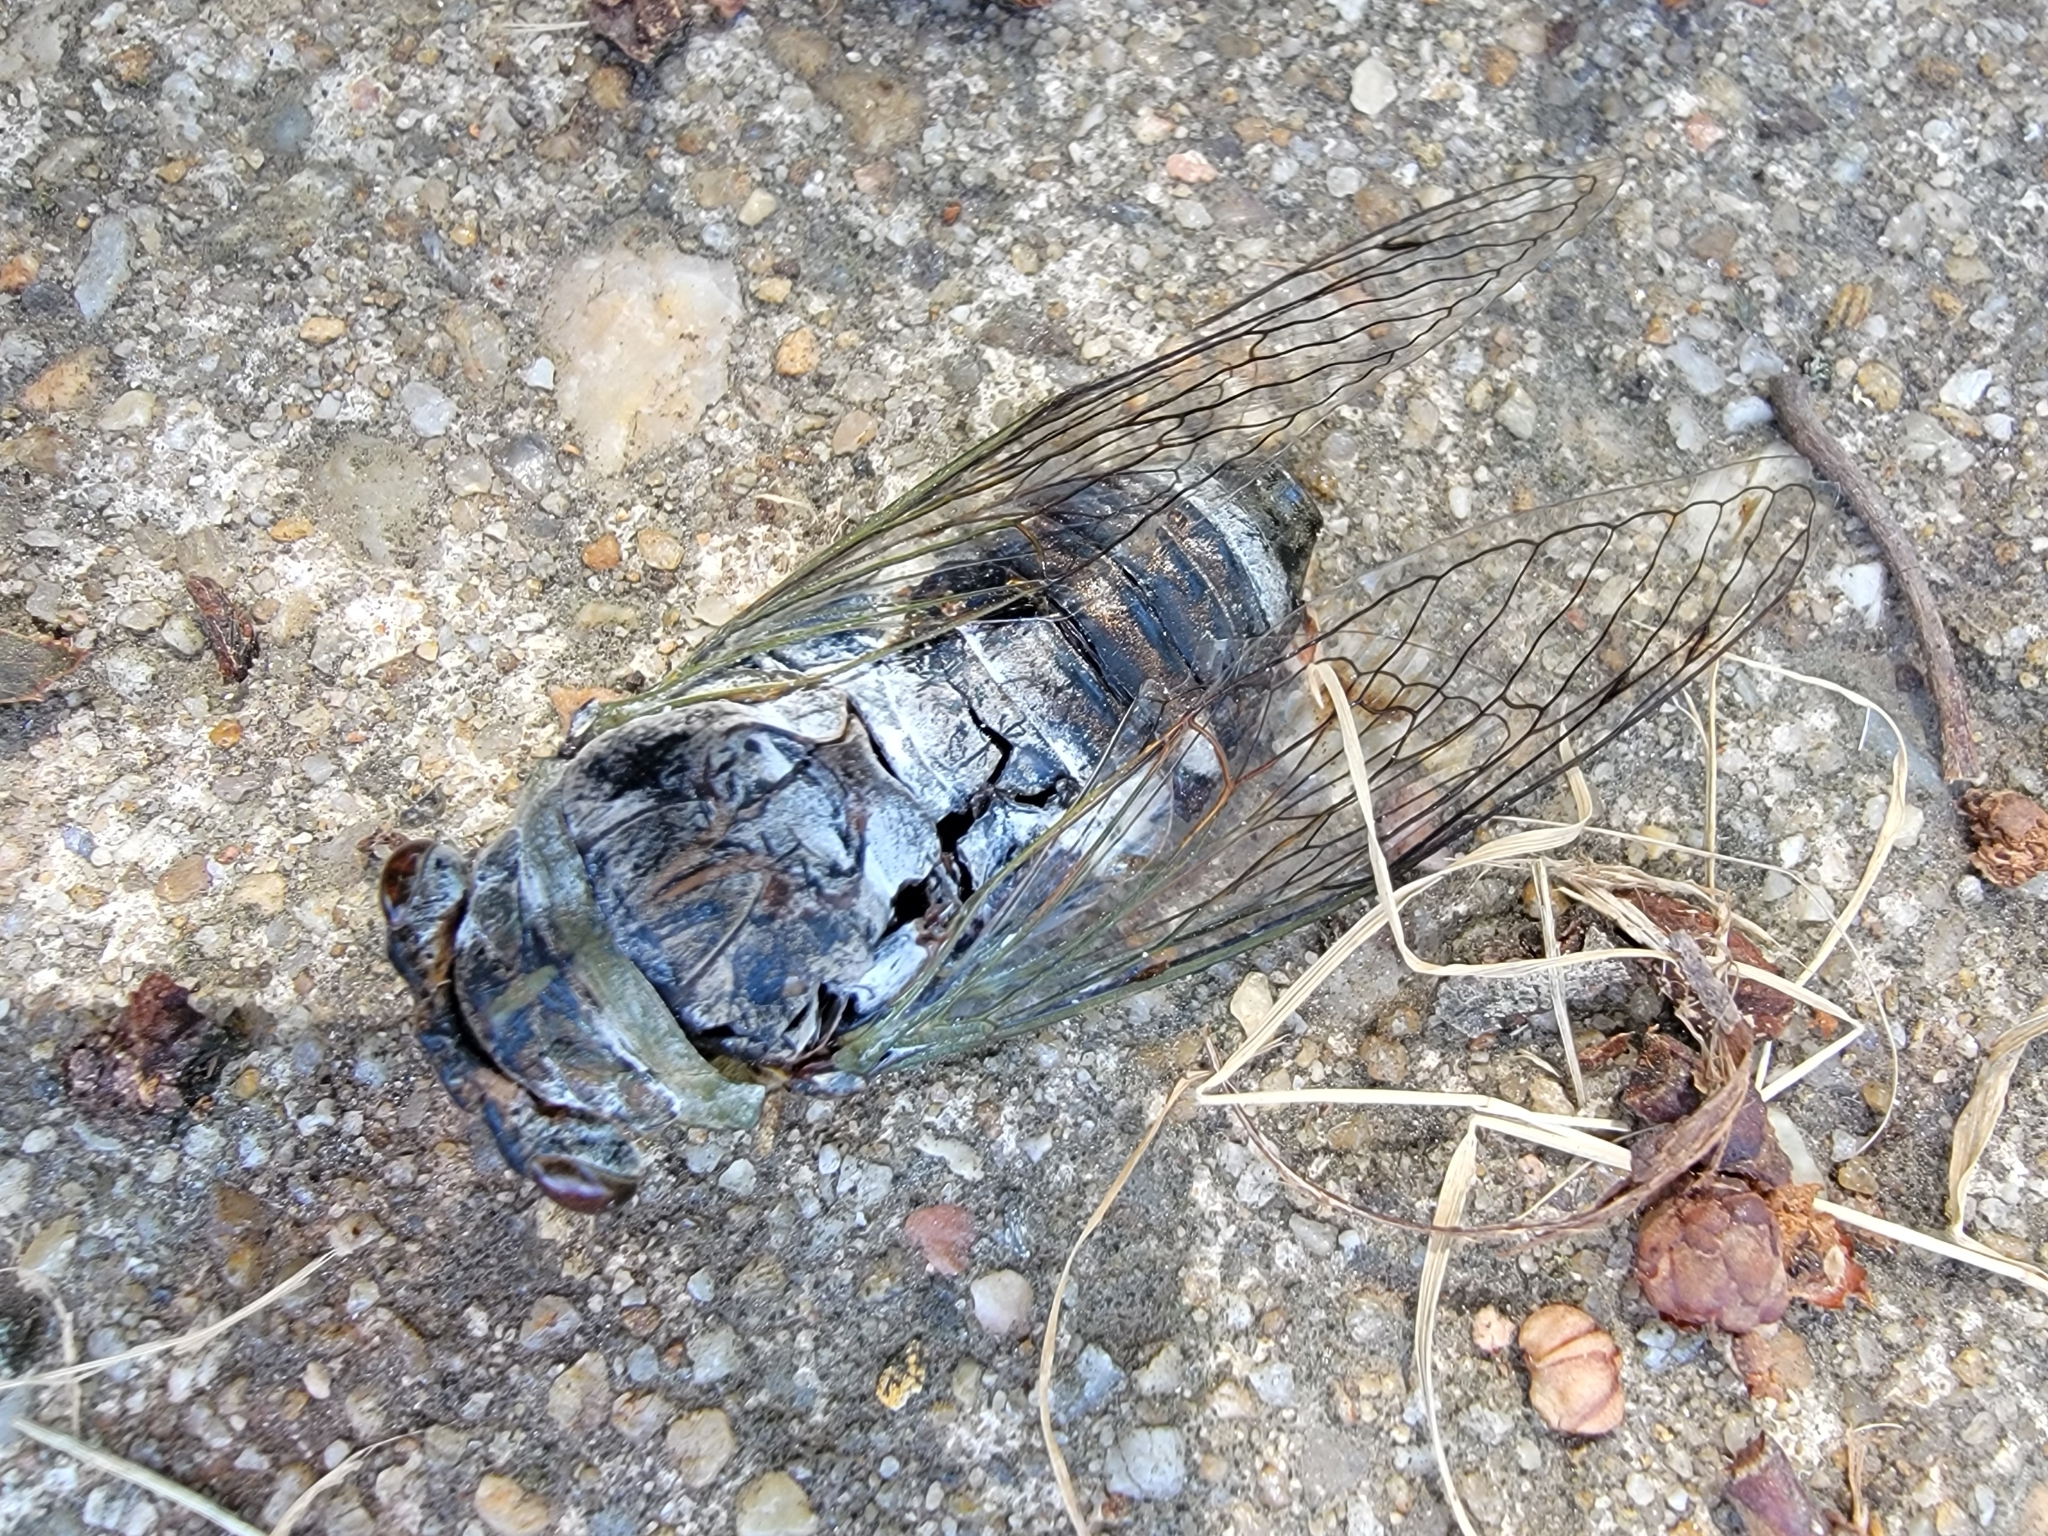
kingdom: Animalia
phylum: Arthropoda
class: Insecta
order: Hemiptera
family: Cicadidae
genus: Diceroprocta
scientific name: Diceroprocta grossa
